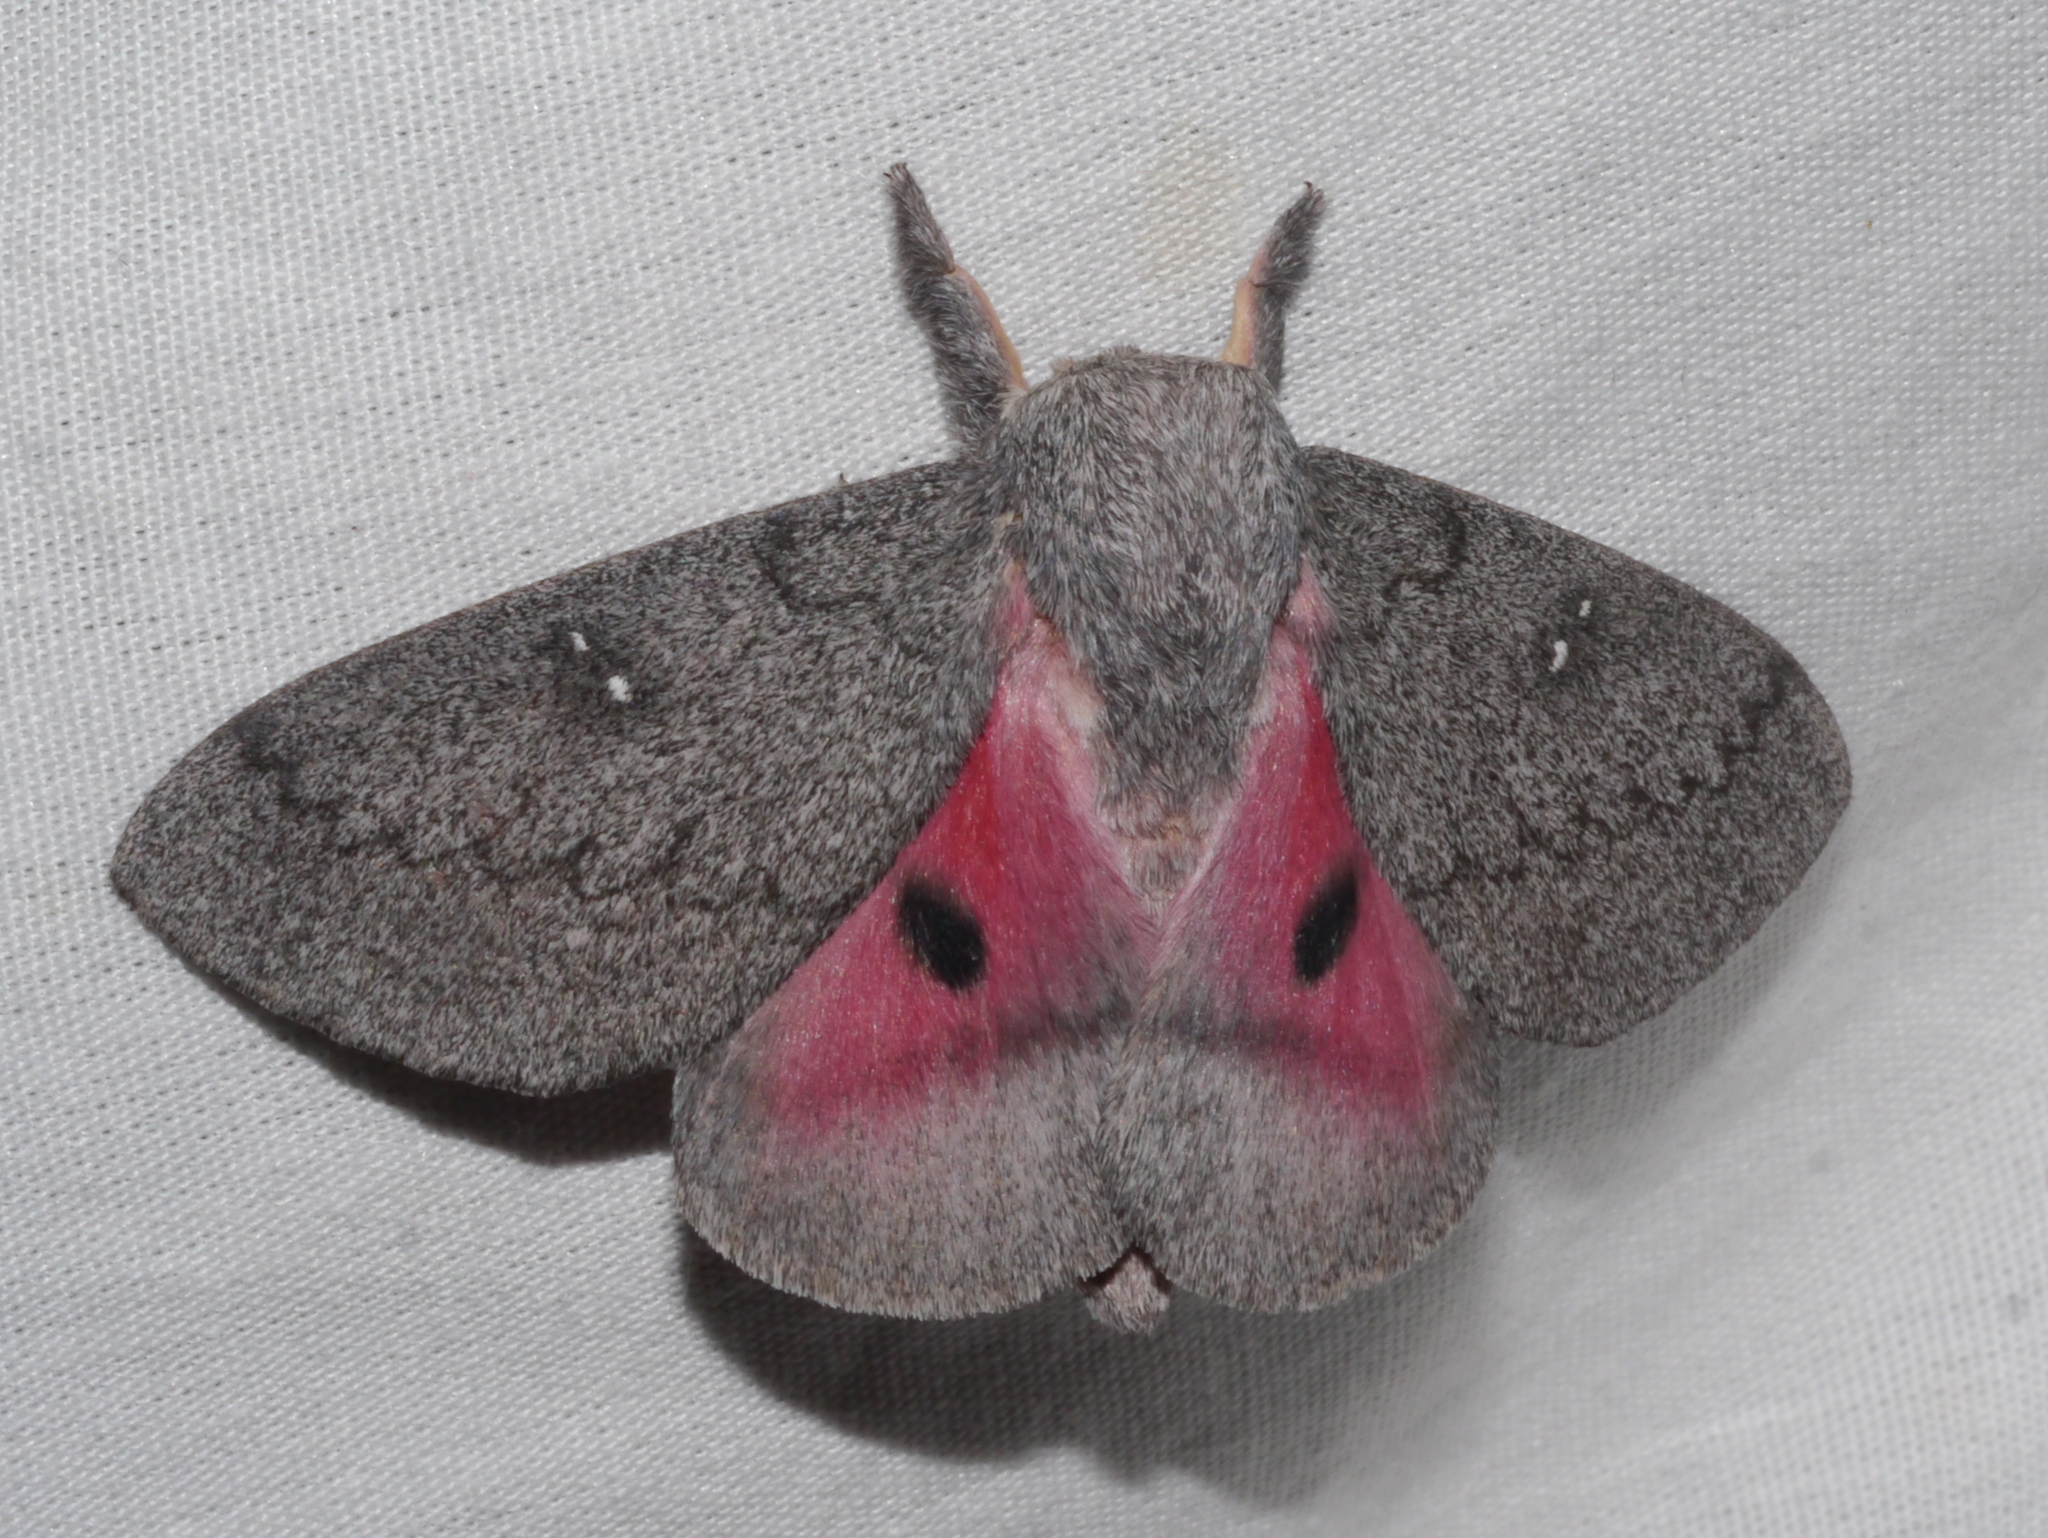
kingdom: Animalia
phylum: Arthropoda
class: Insecta
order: Lepidoptera
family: Saturniidae
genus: Syssphinx
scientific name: Syssphinx hubbardi
